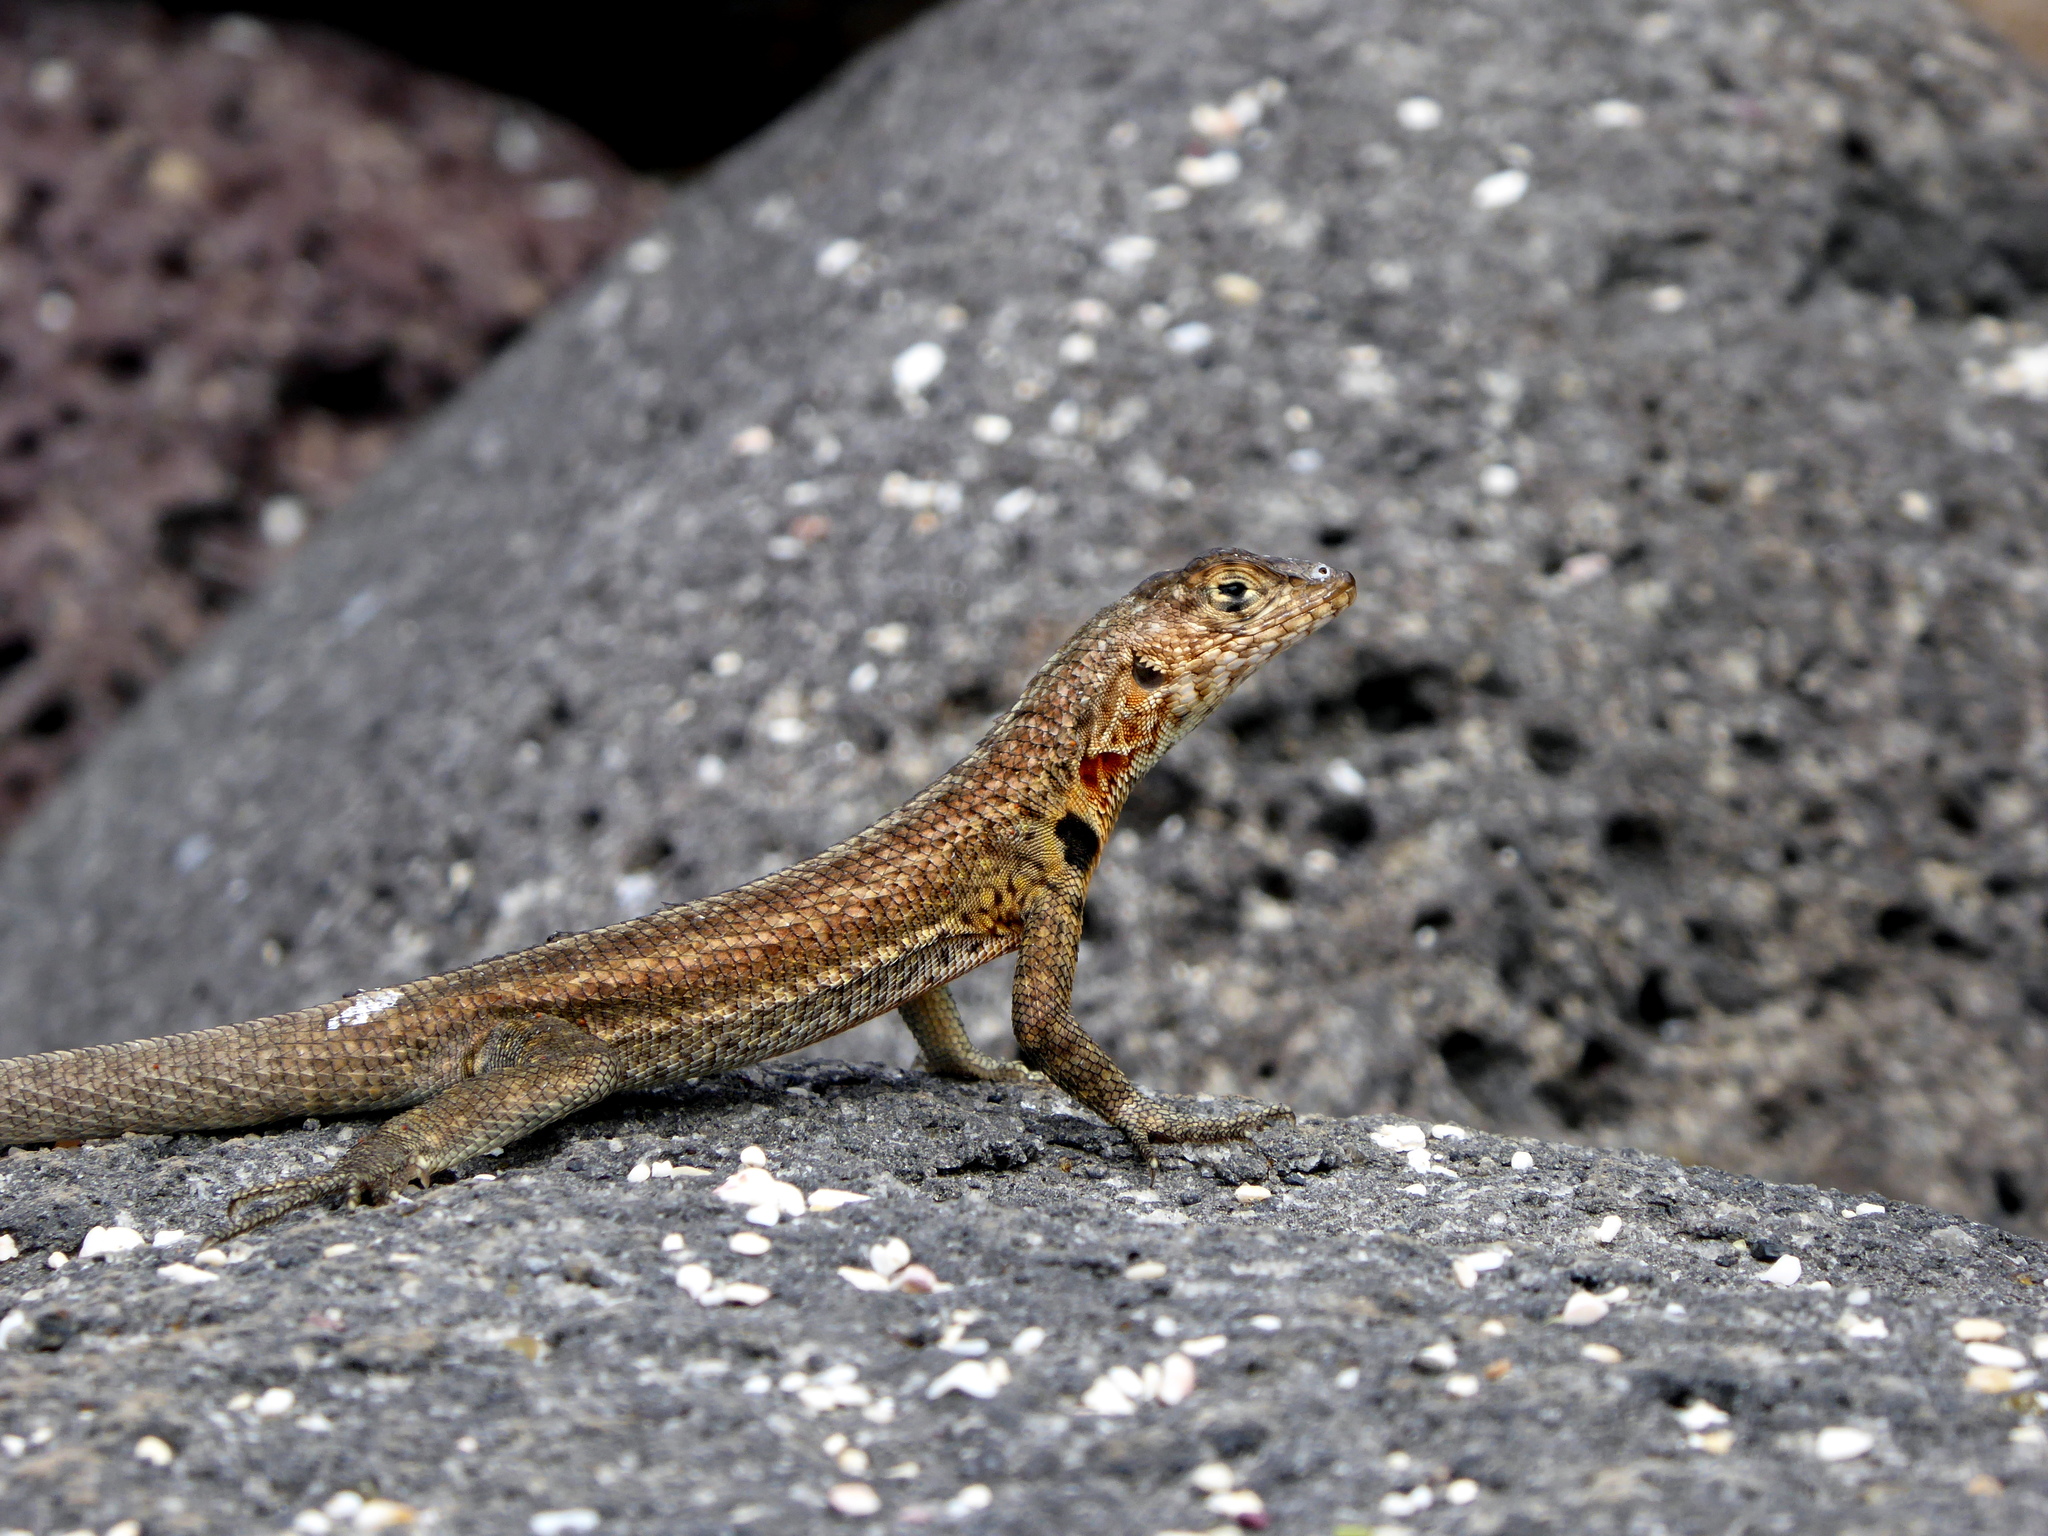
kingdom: Animalia
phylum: Chordata
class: Squamata
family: Tropiduridae
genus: Microlophus
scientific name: Microlophus indefatigabilis
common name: Galapagos lava lizard
